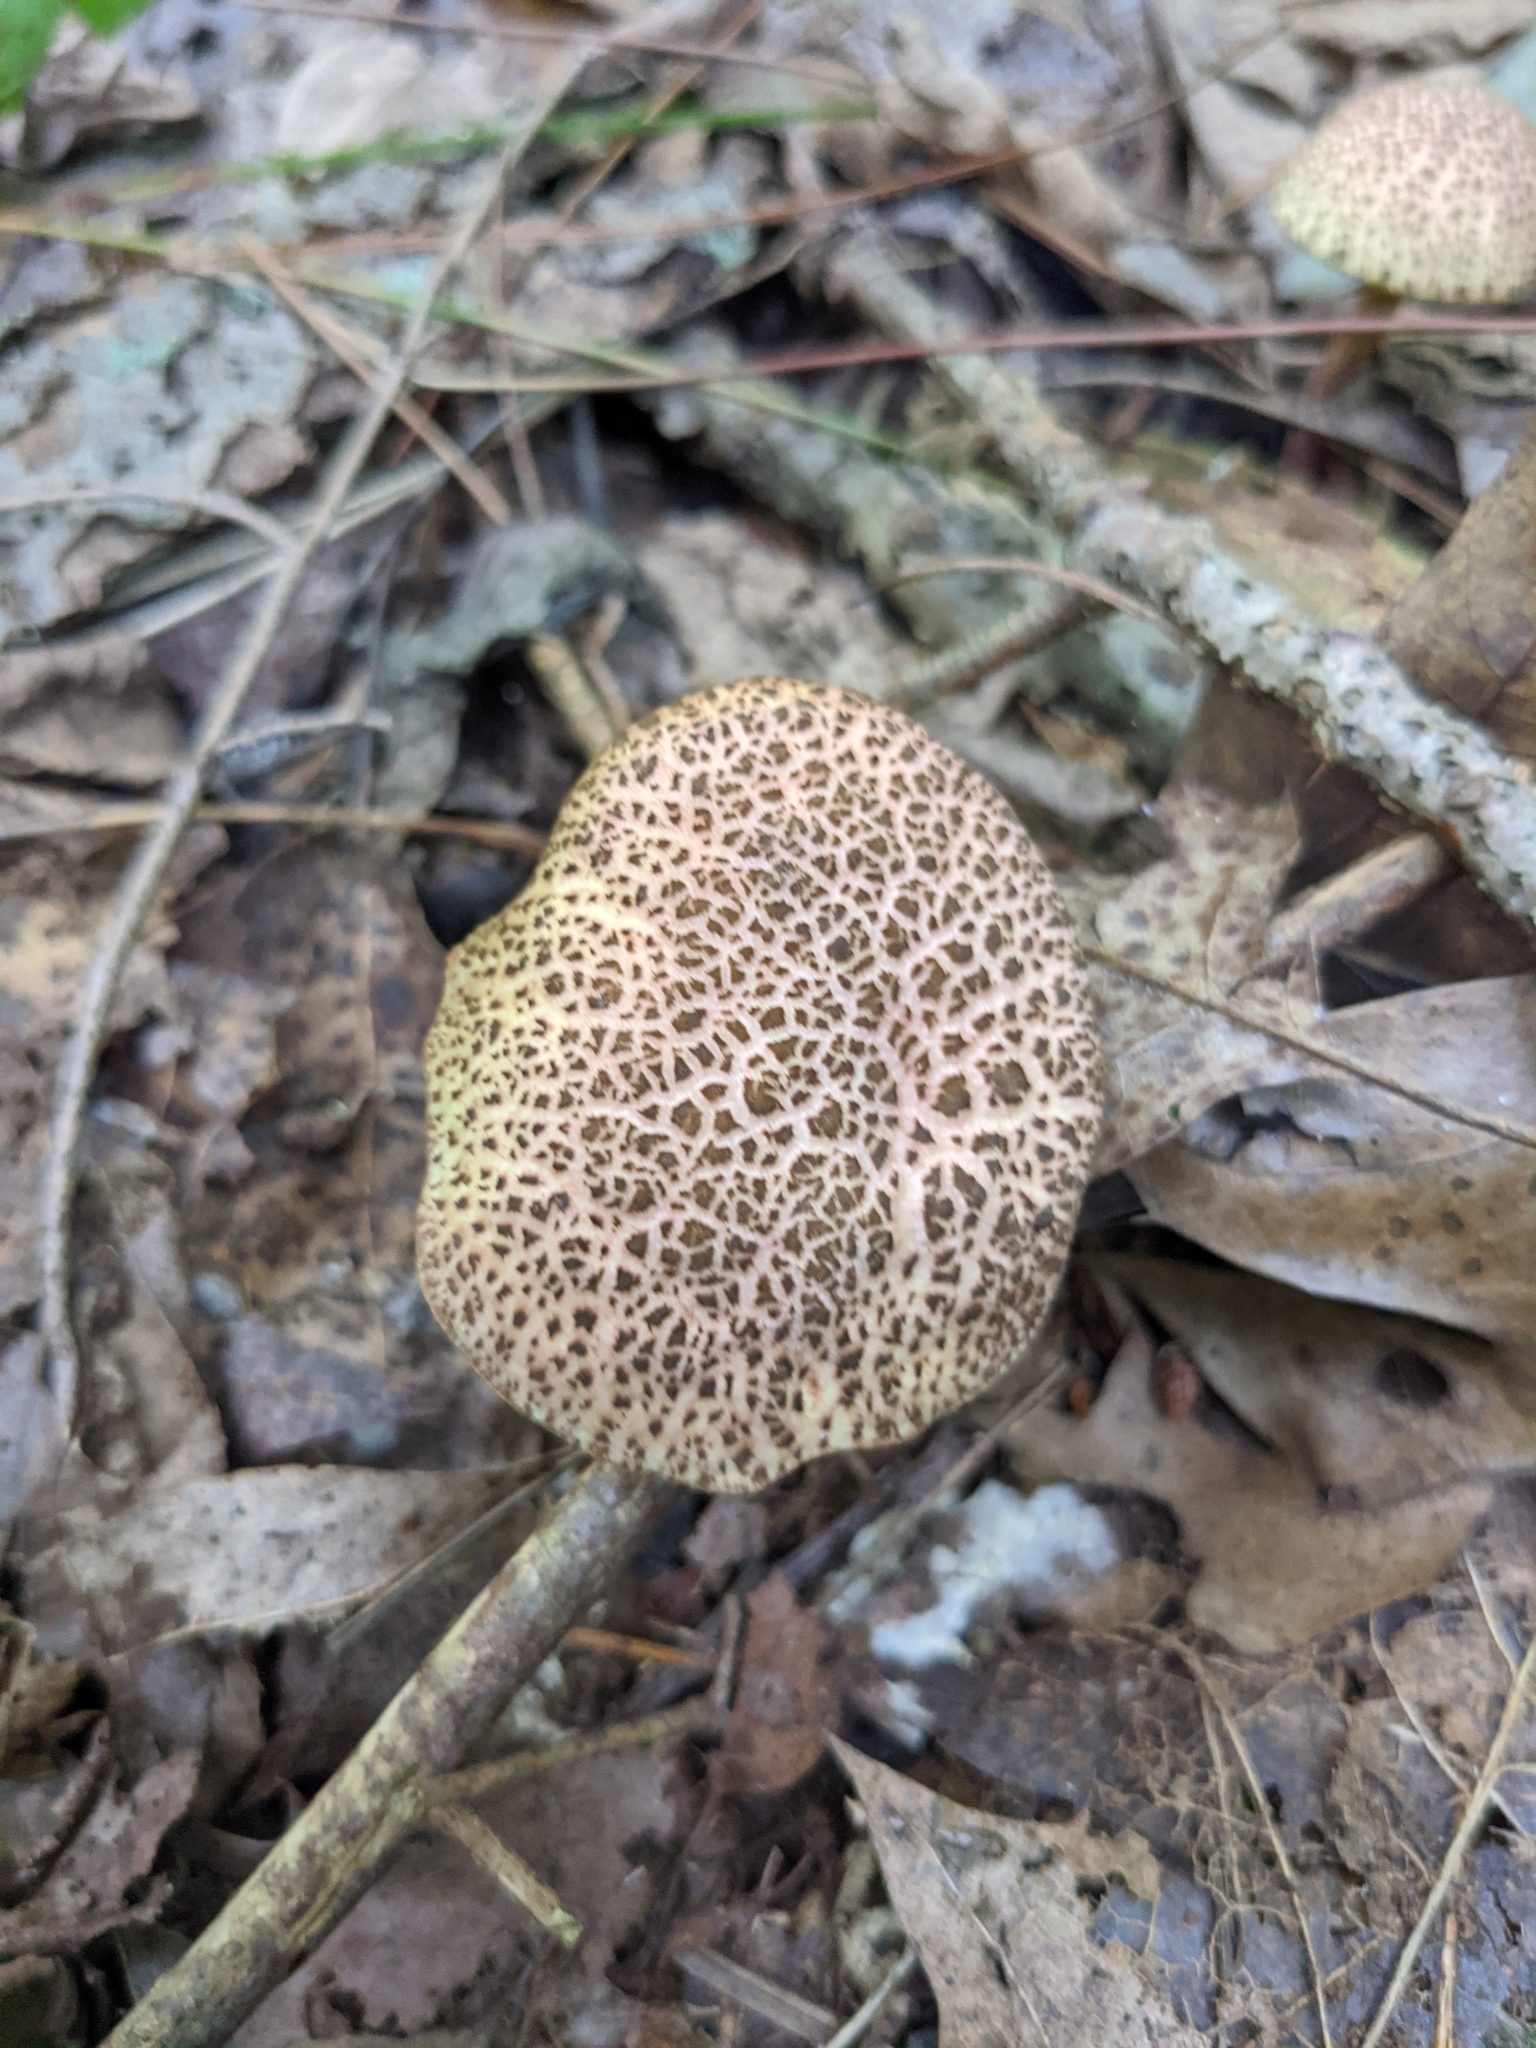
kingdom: Fungi
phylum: Basidiomycota
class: Agaricomycetes
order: Boletales
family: Boletaceae
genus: Xerocomellus
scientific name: Xerocomellus chrysenteron
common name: Red-cracking bolete
